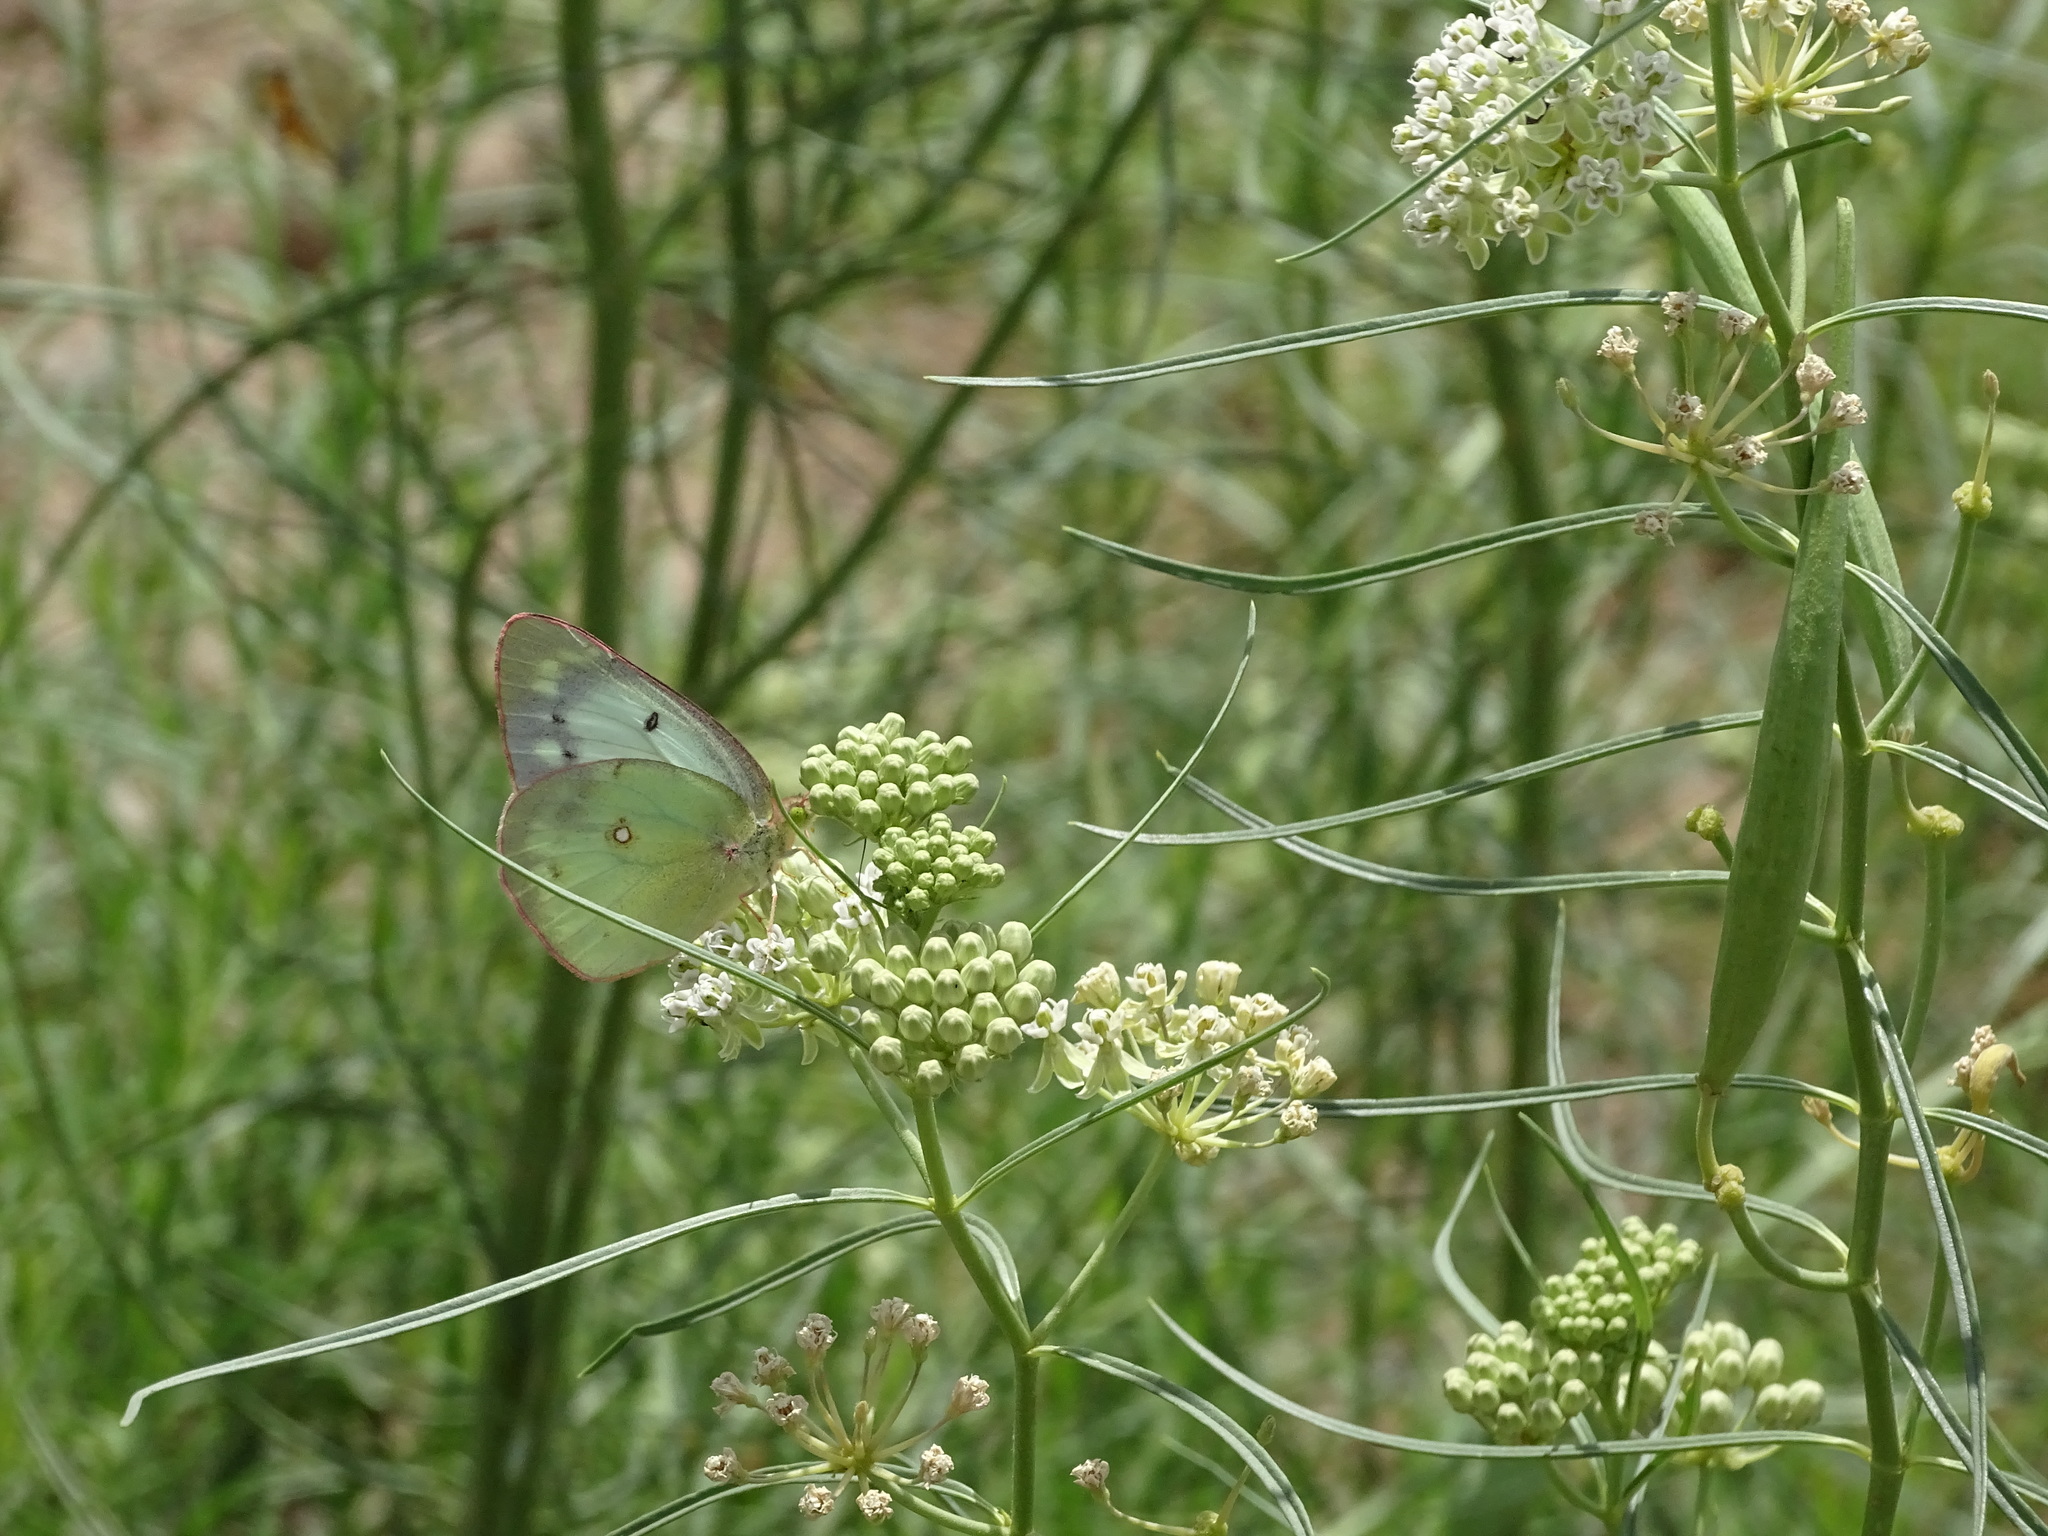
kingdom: Animalia
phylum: Arthropoda
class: Insecta
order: Lepidoptera
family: Pieridae
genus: Colias
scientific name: Colias eurytheme
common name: Alfalfa butterfly
